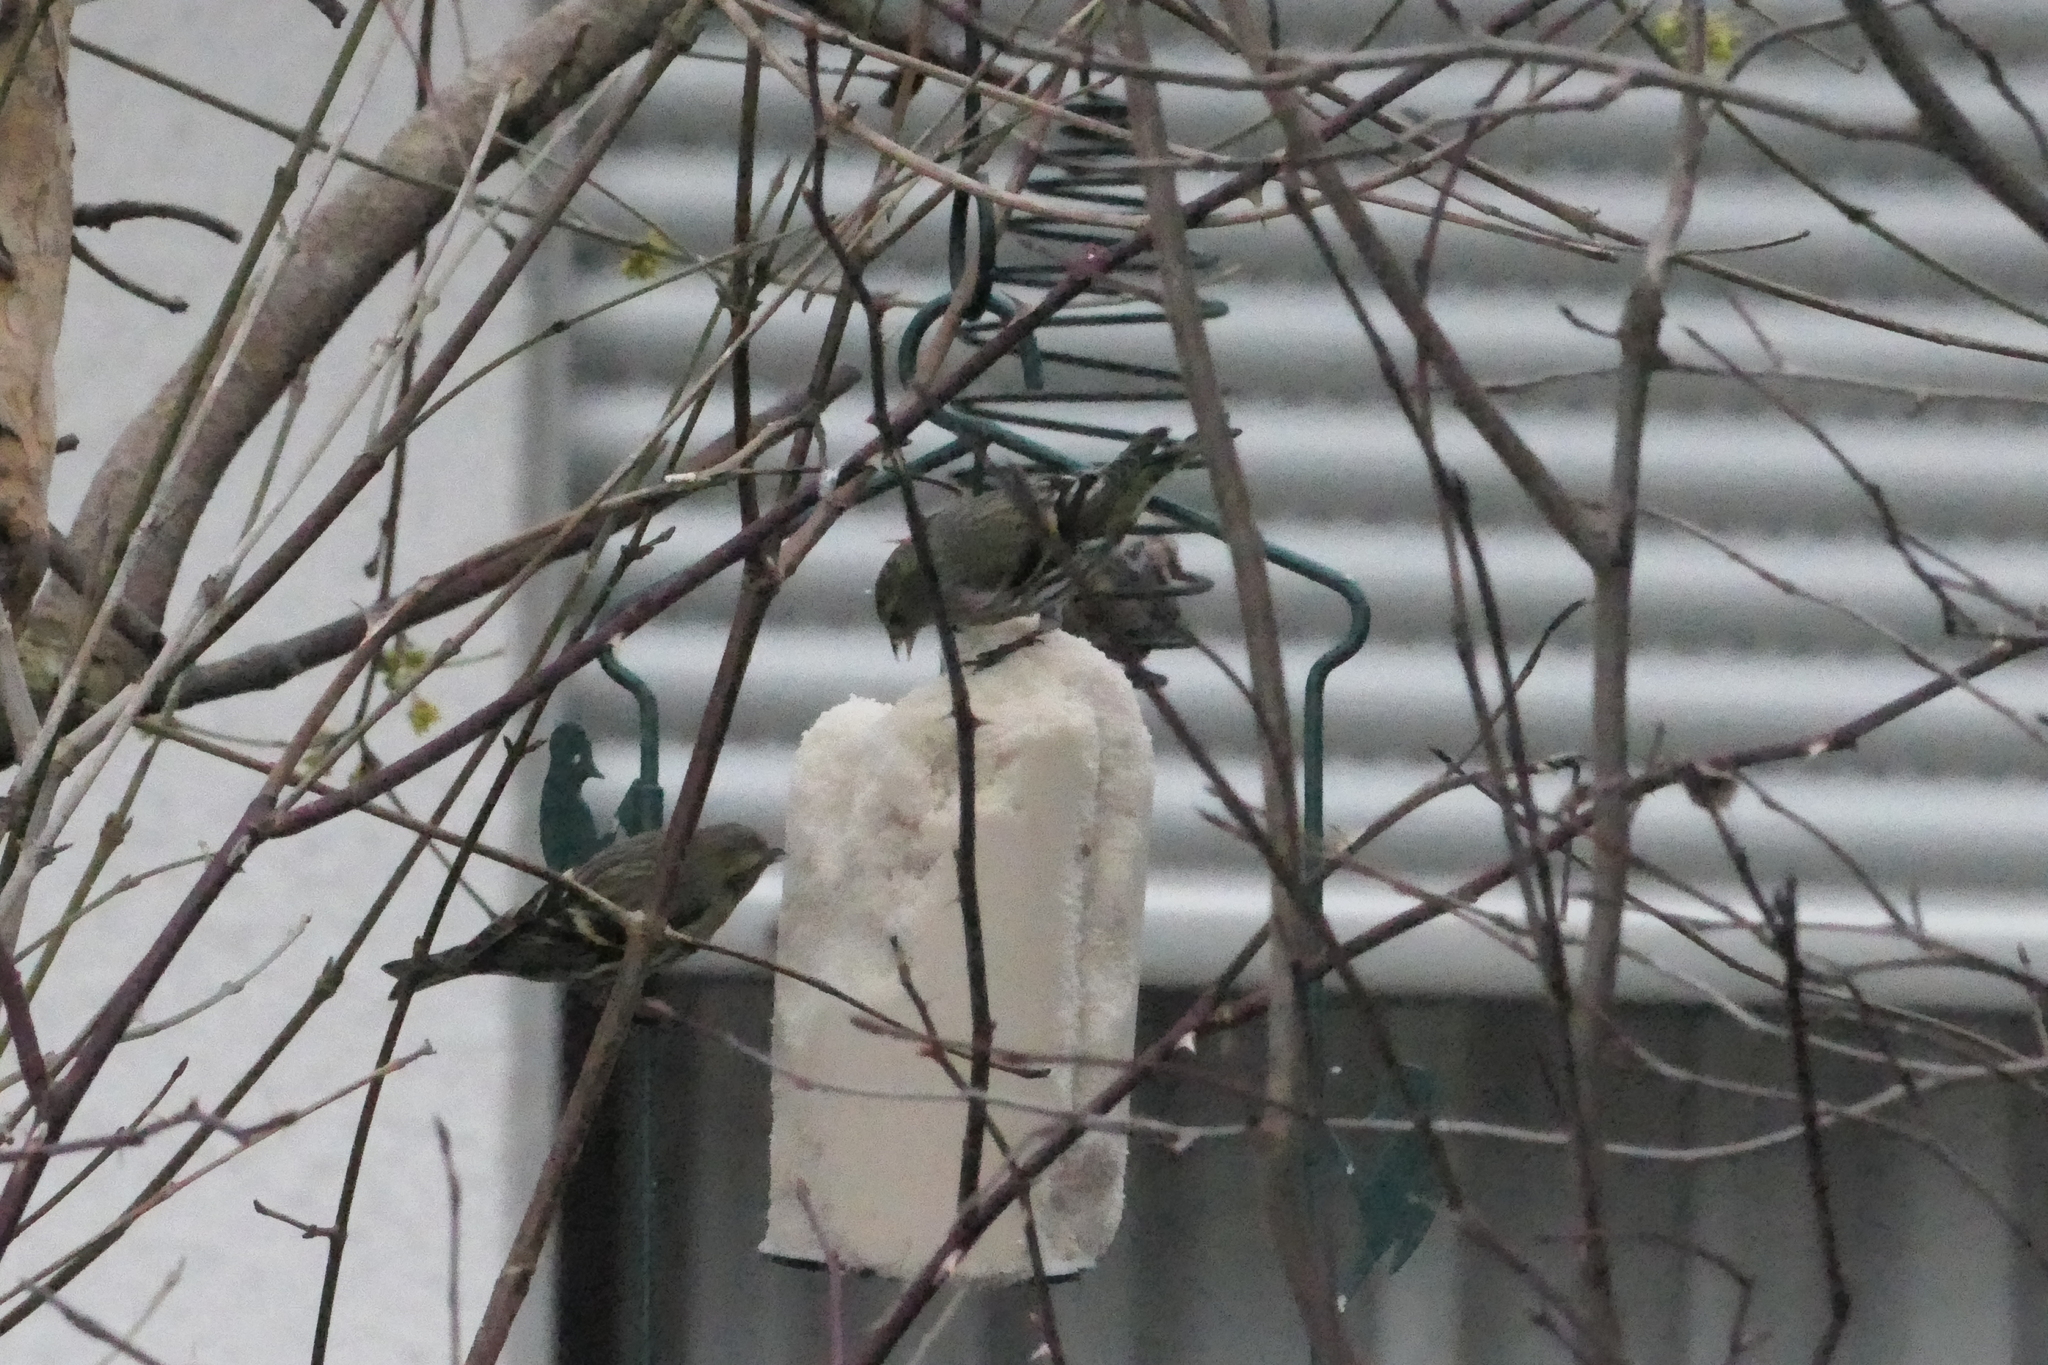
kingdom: Animalia
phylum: Chordata
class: Aves
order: Passeriformes
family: Fringillidae
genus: Spinus
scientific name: Spinus spinus
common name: Eurasian siskin
